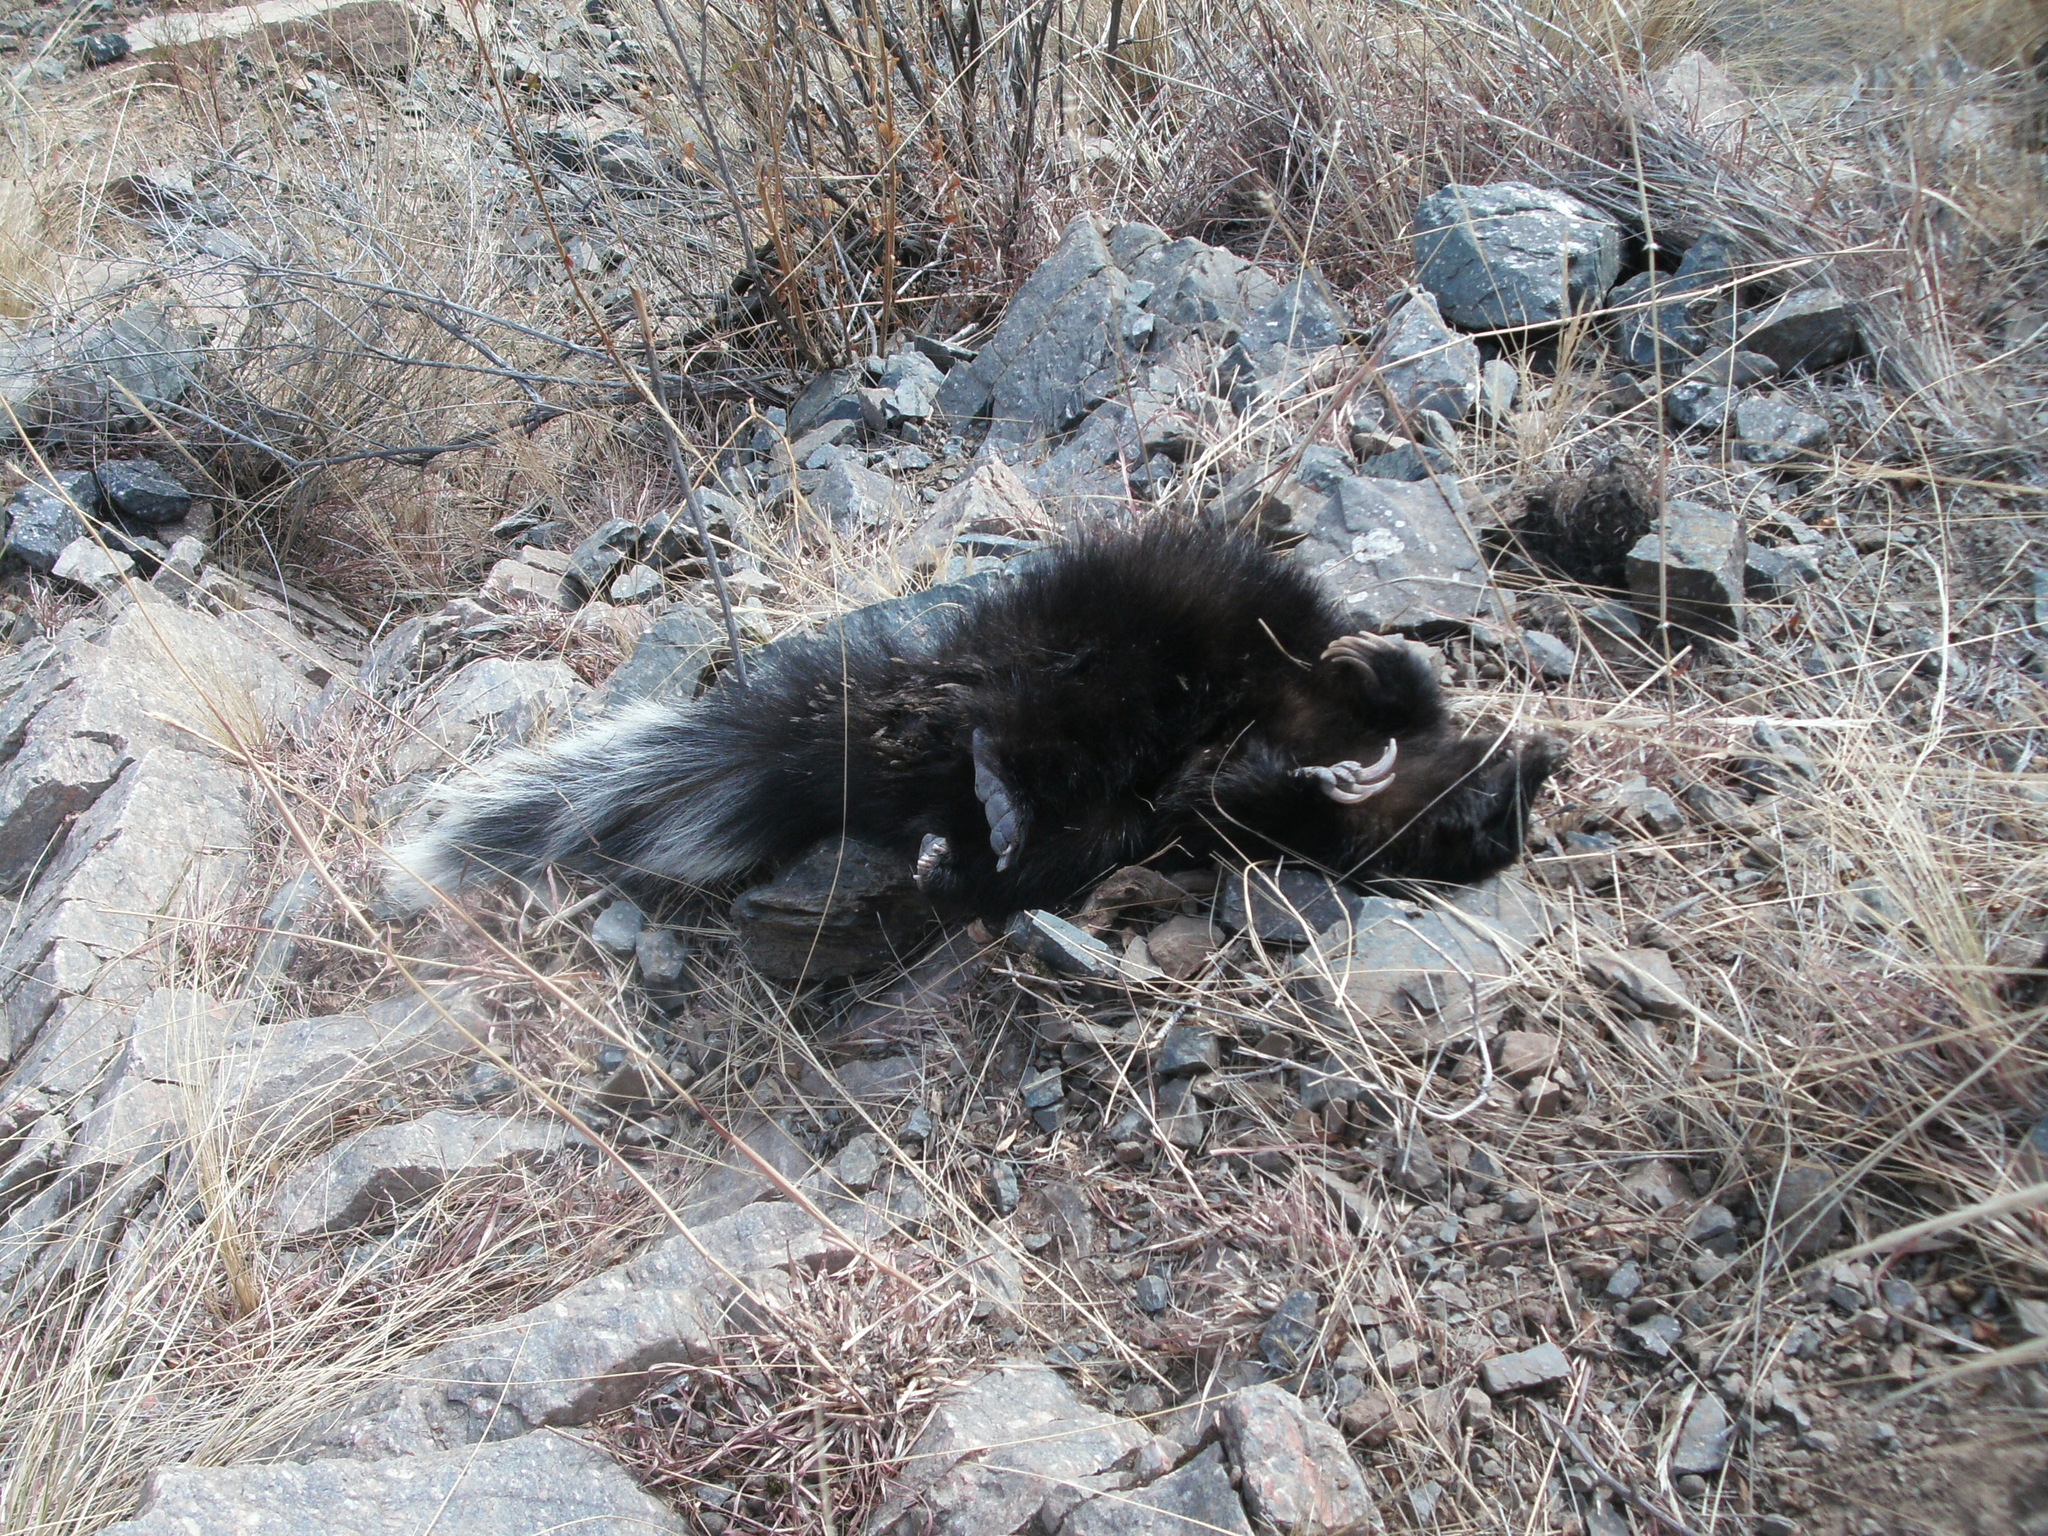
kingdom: Animalia
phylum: Chordata
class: Mammalia
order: Carnivora
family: Mephitidae
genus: Conepatus
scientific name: Conepatus chinga
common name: Molina's hog-nosed skunk
